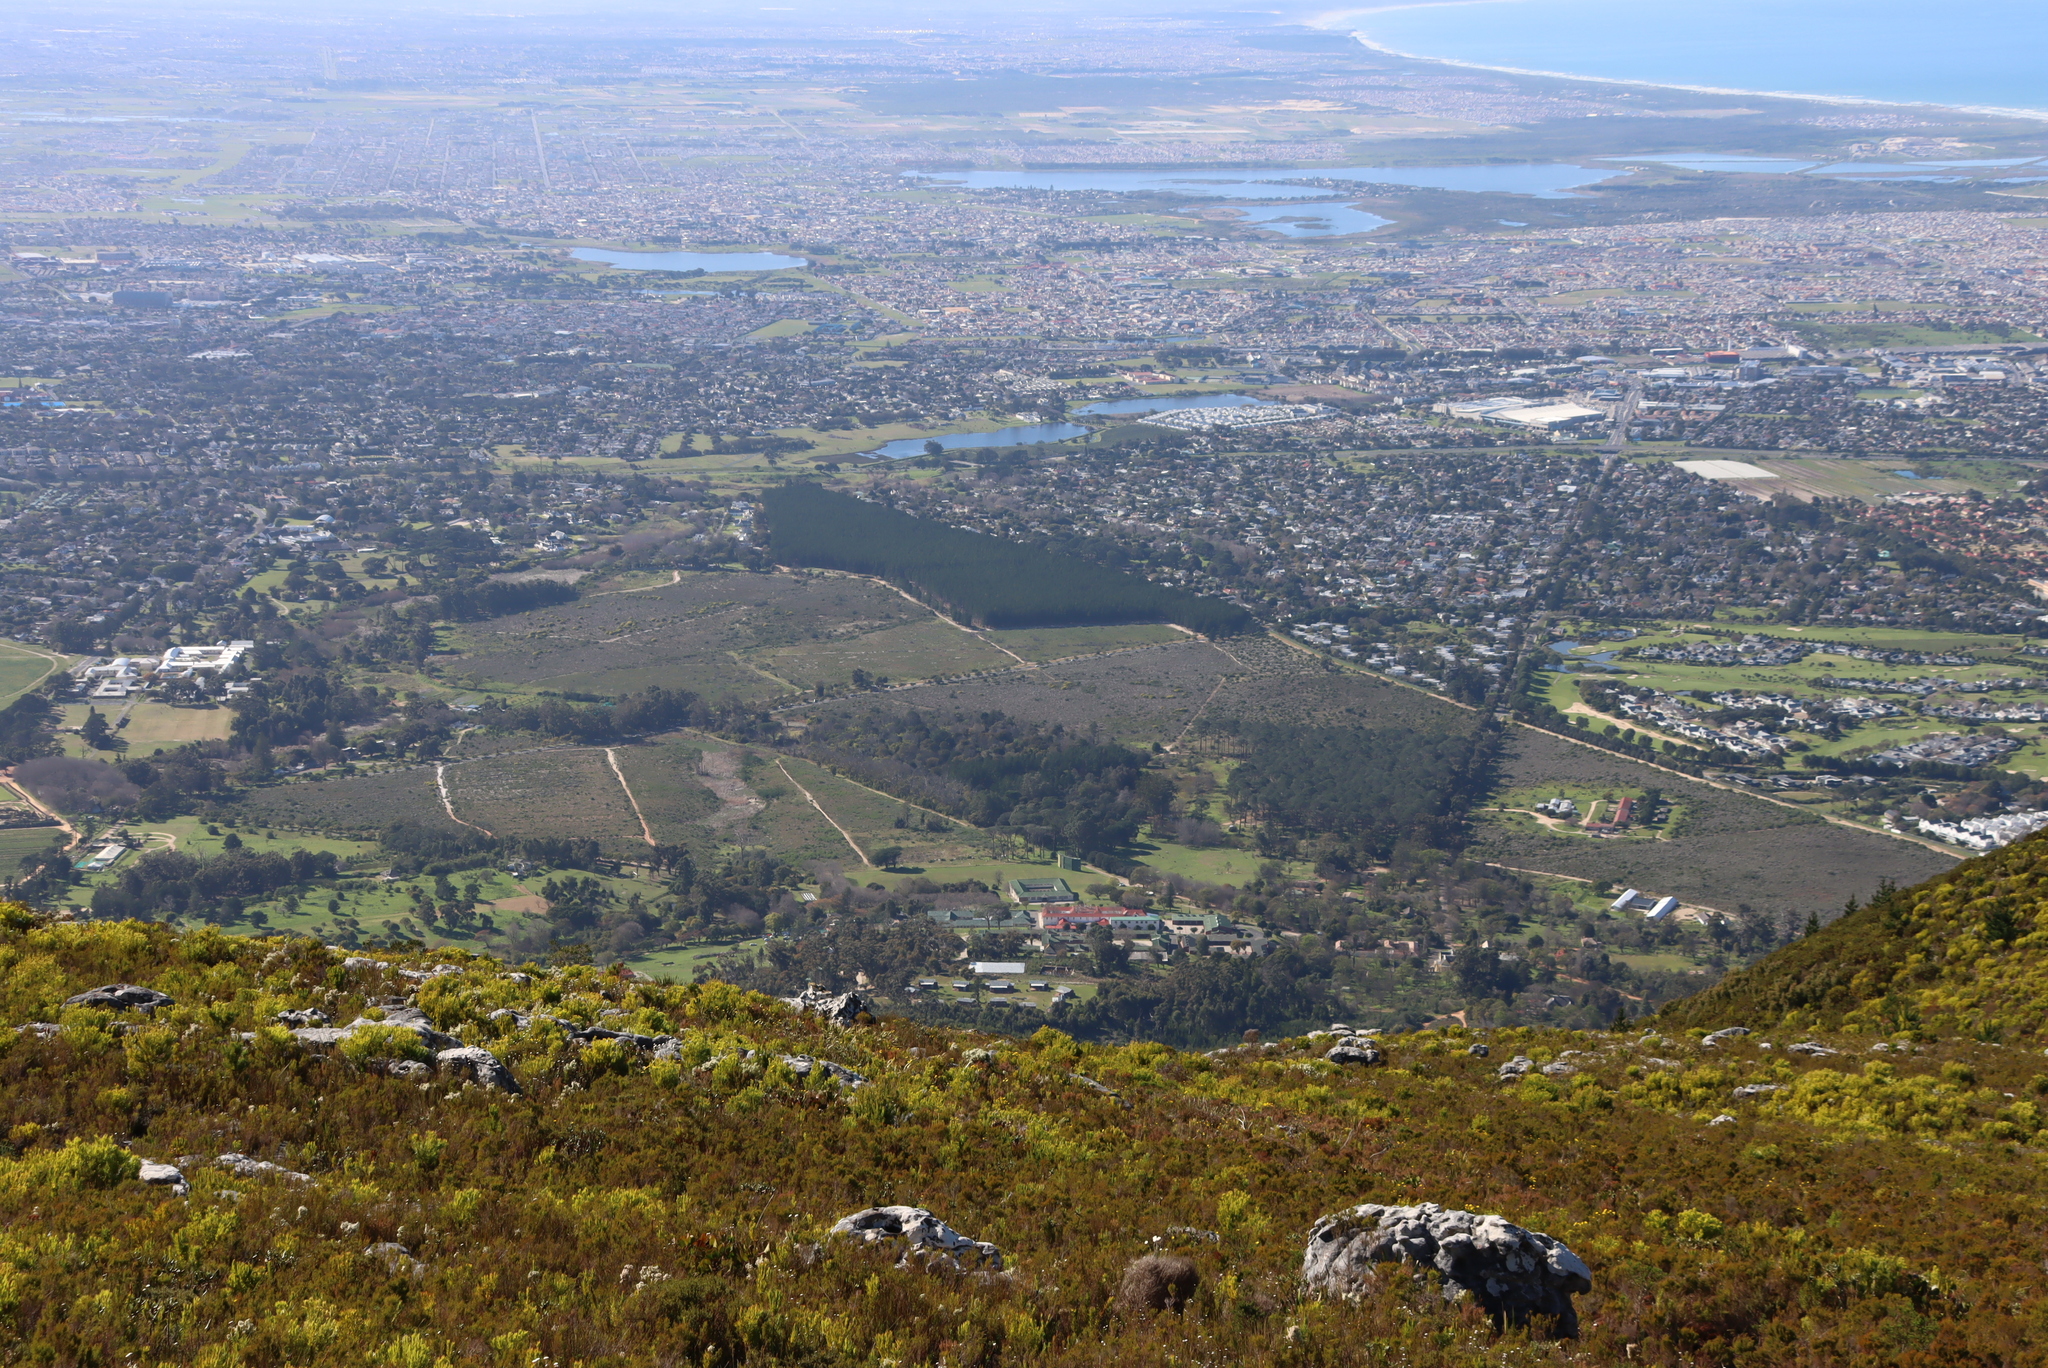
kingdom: Plantae
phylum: Tracheophyta
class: Magnoliopsida
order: Proteales
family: Proteaceae
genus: Leucadendron
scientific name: Leucadendron xanthoconus
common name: Sickle-leaf conebush
